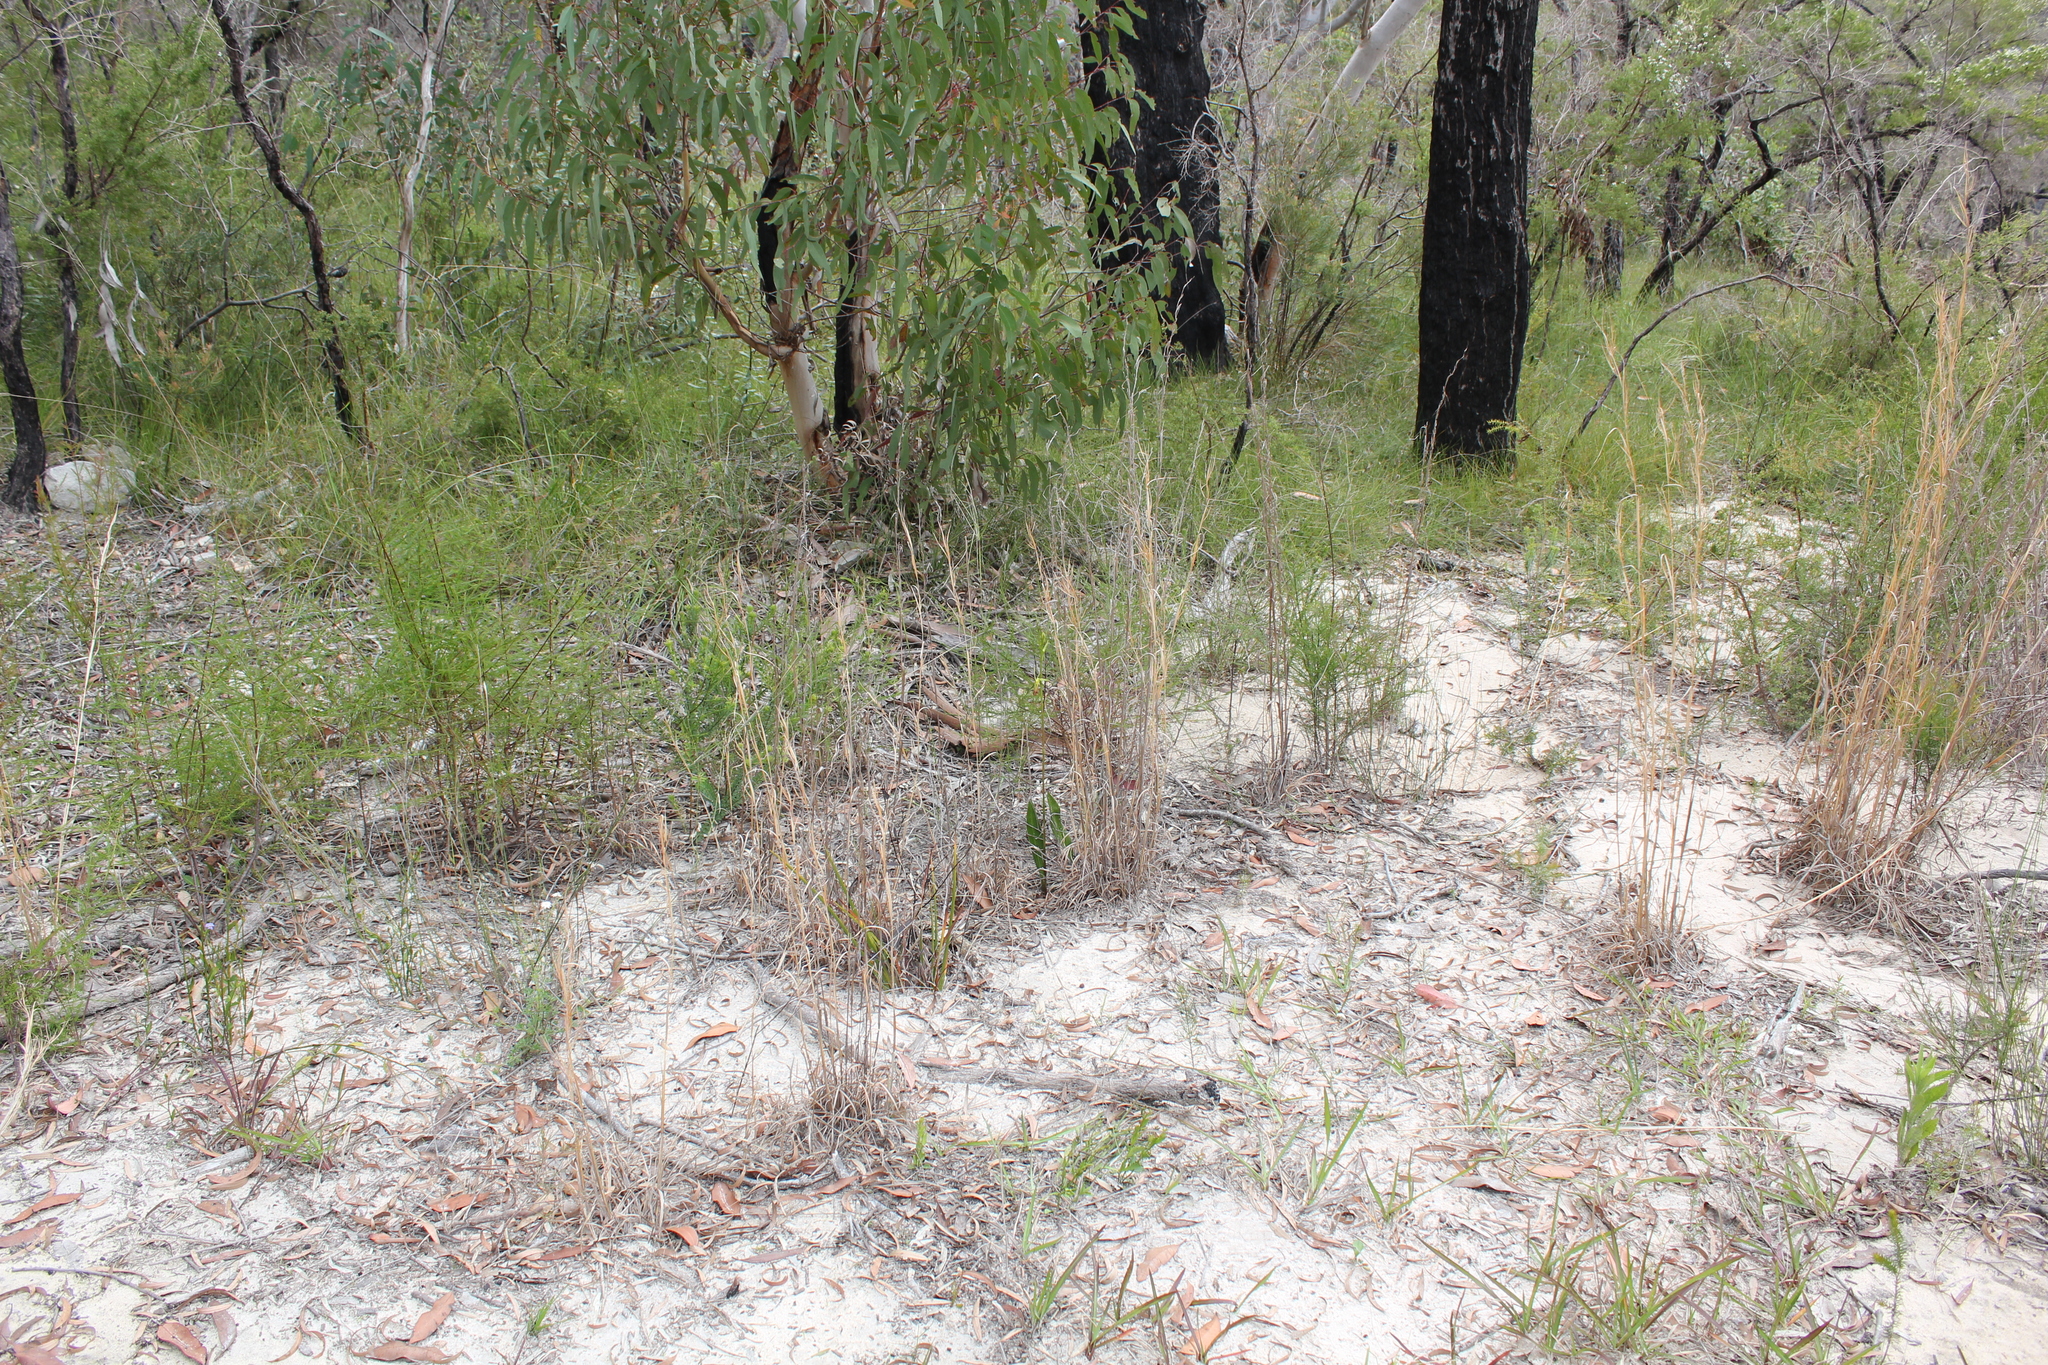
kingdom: Plantae
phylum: Tracheophyta
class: Liliopsida
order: Asparagales
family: Orchidaceae
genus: Cryptostylis
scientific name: Cryptostylis subulata
